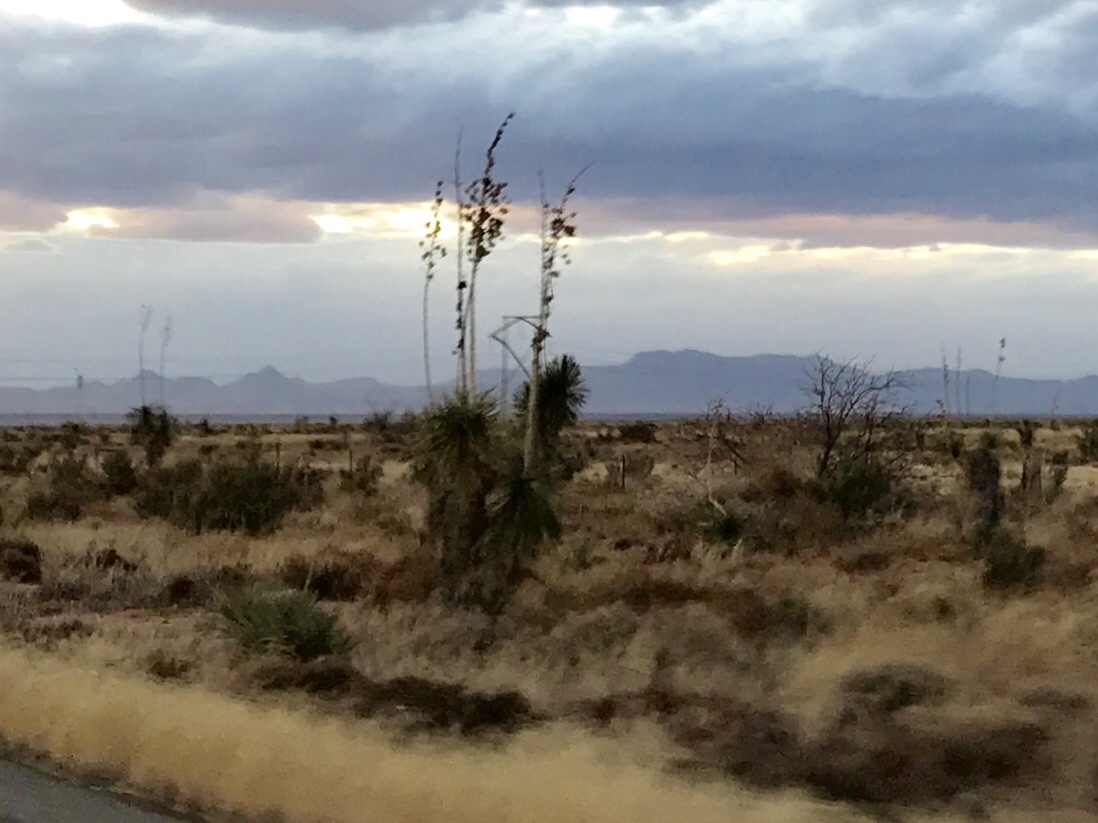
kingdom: Plantae
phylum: Tracheophyta
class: Liliopsida
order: Asparagales
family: Asparagaceae
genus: Yucca
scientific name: Yucca elata
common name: Palmella
